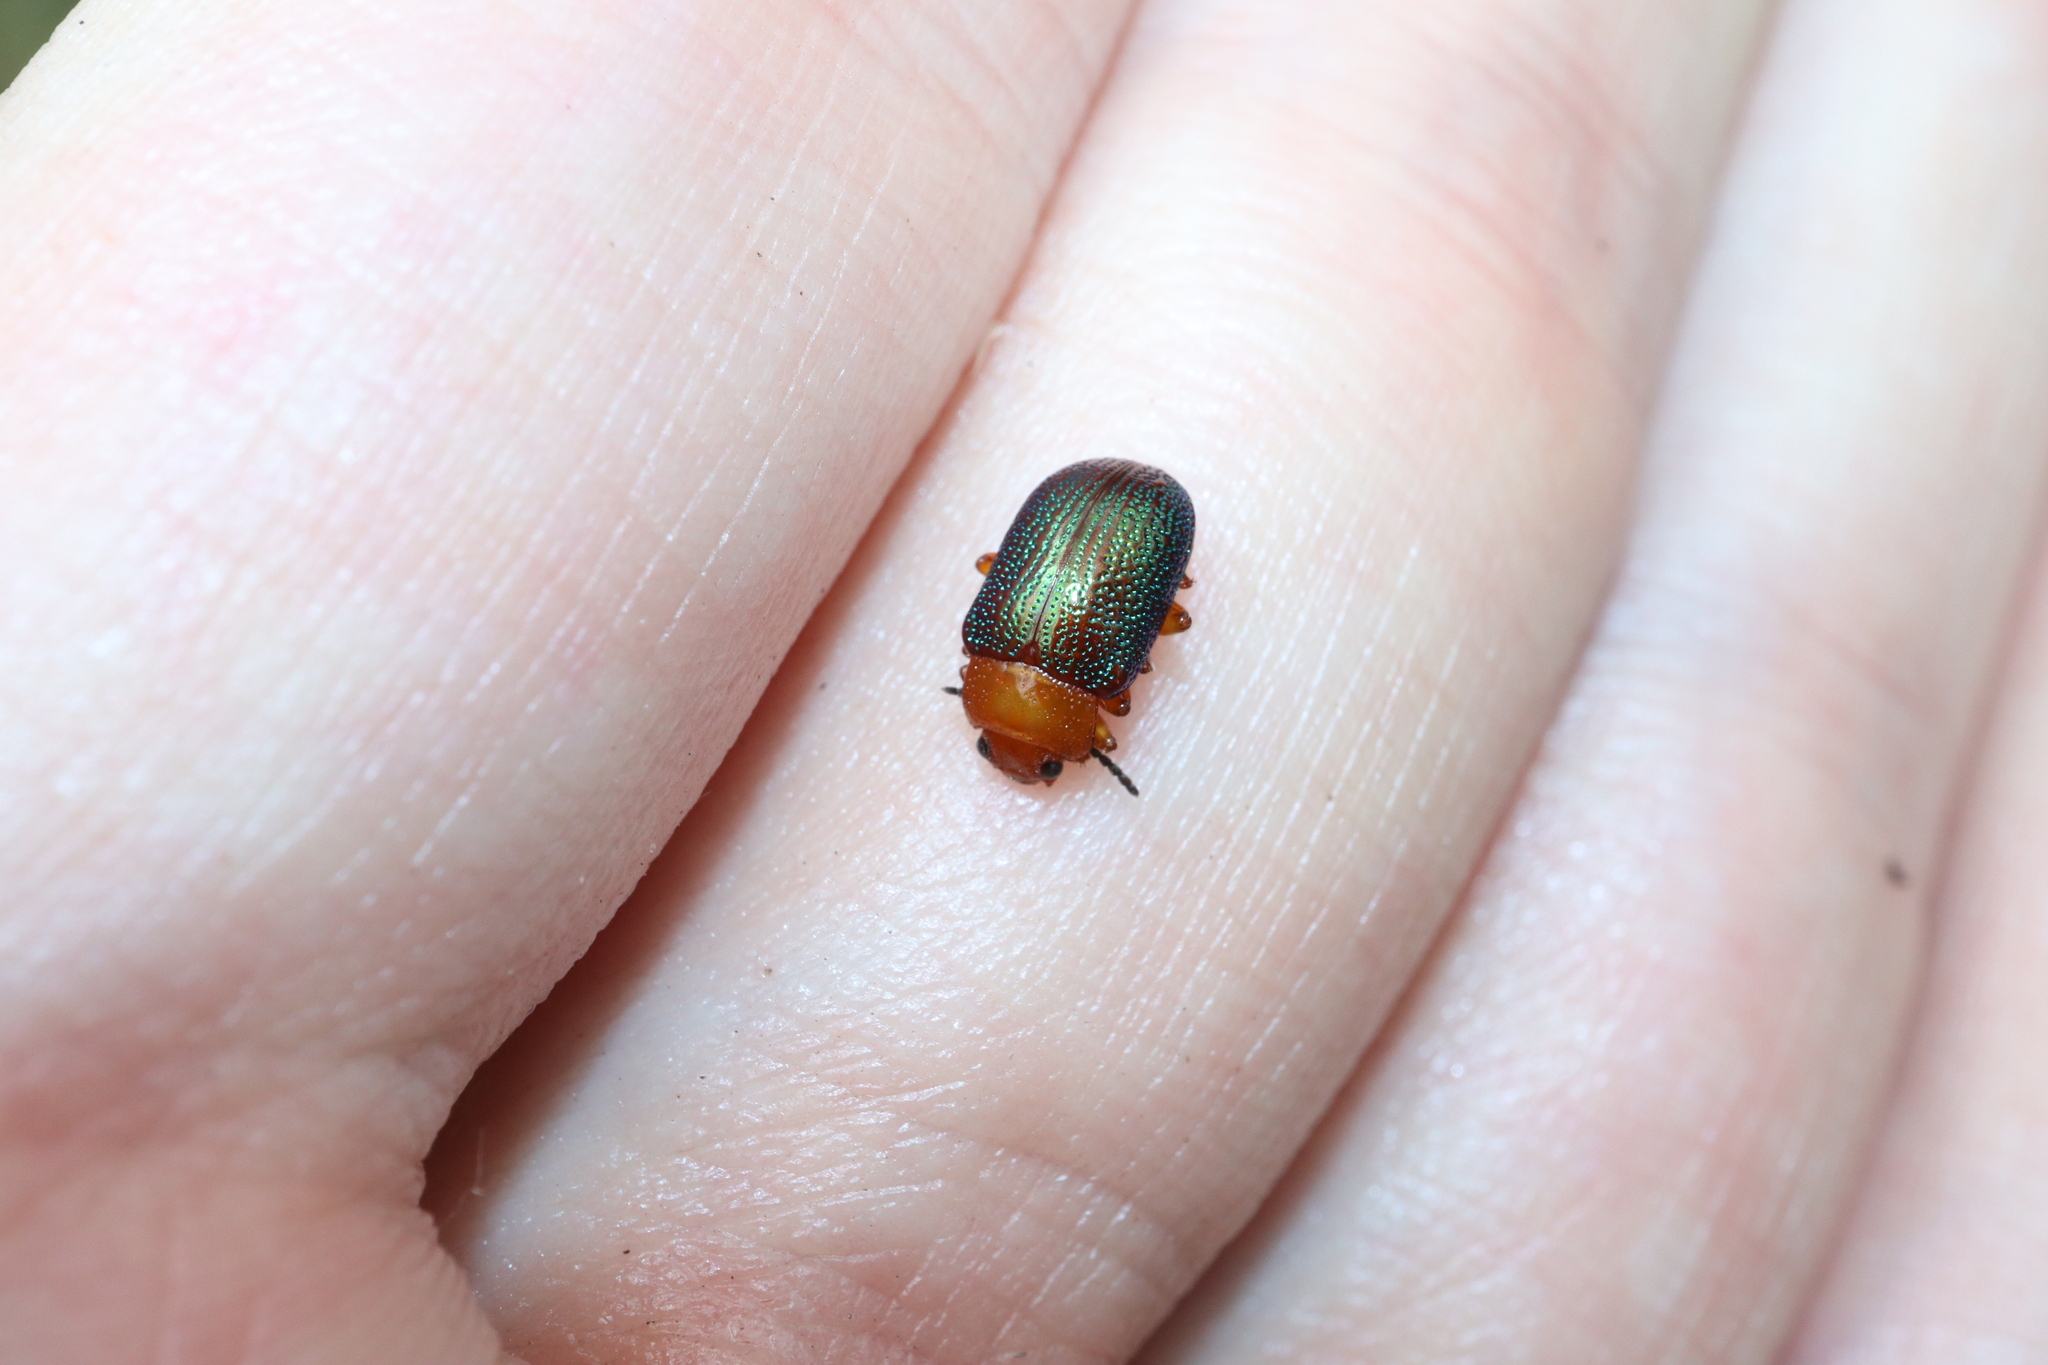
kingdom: Animalia
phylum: Arthropoda
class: Insecta
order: Coleoptera
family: Chrysomelidae
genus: Calomela
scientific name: Calomela
